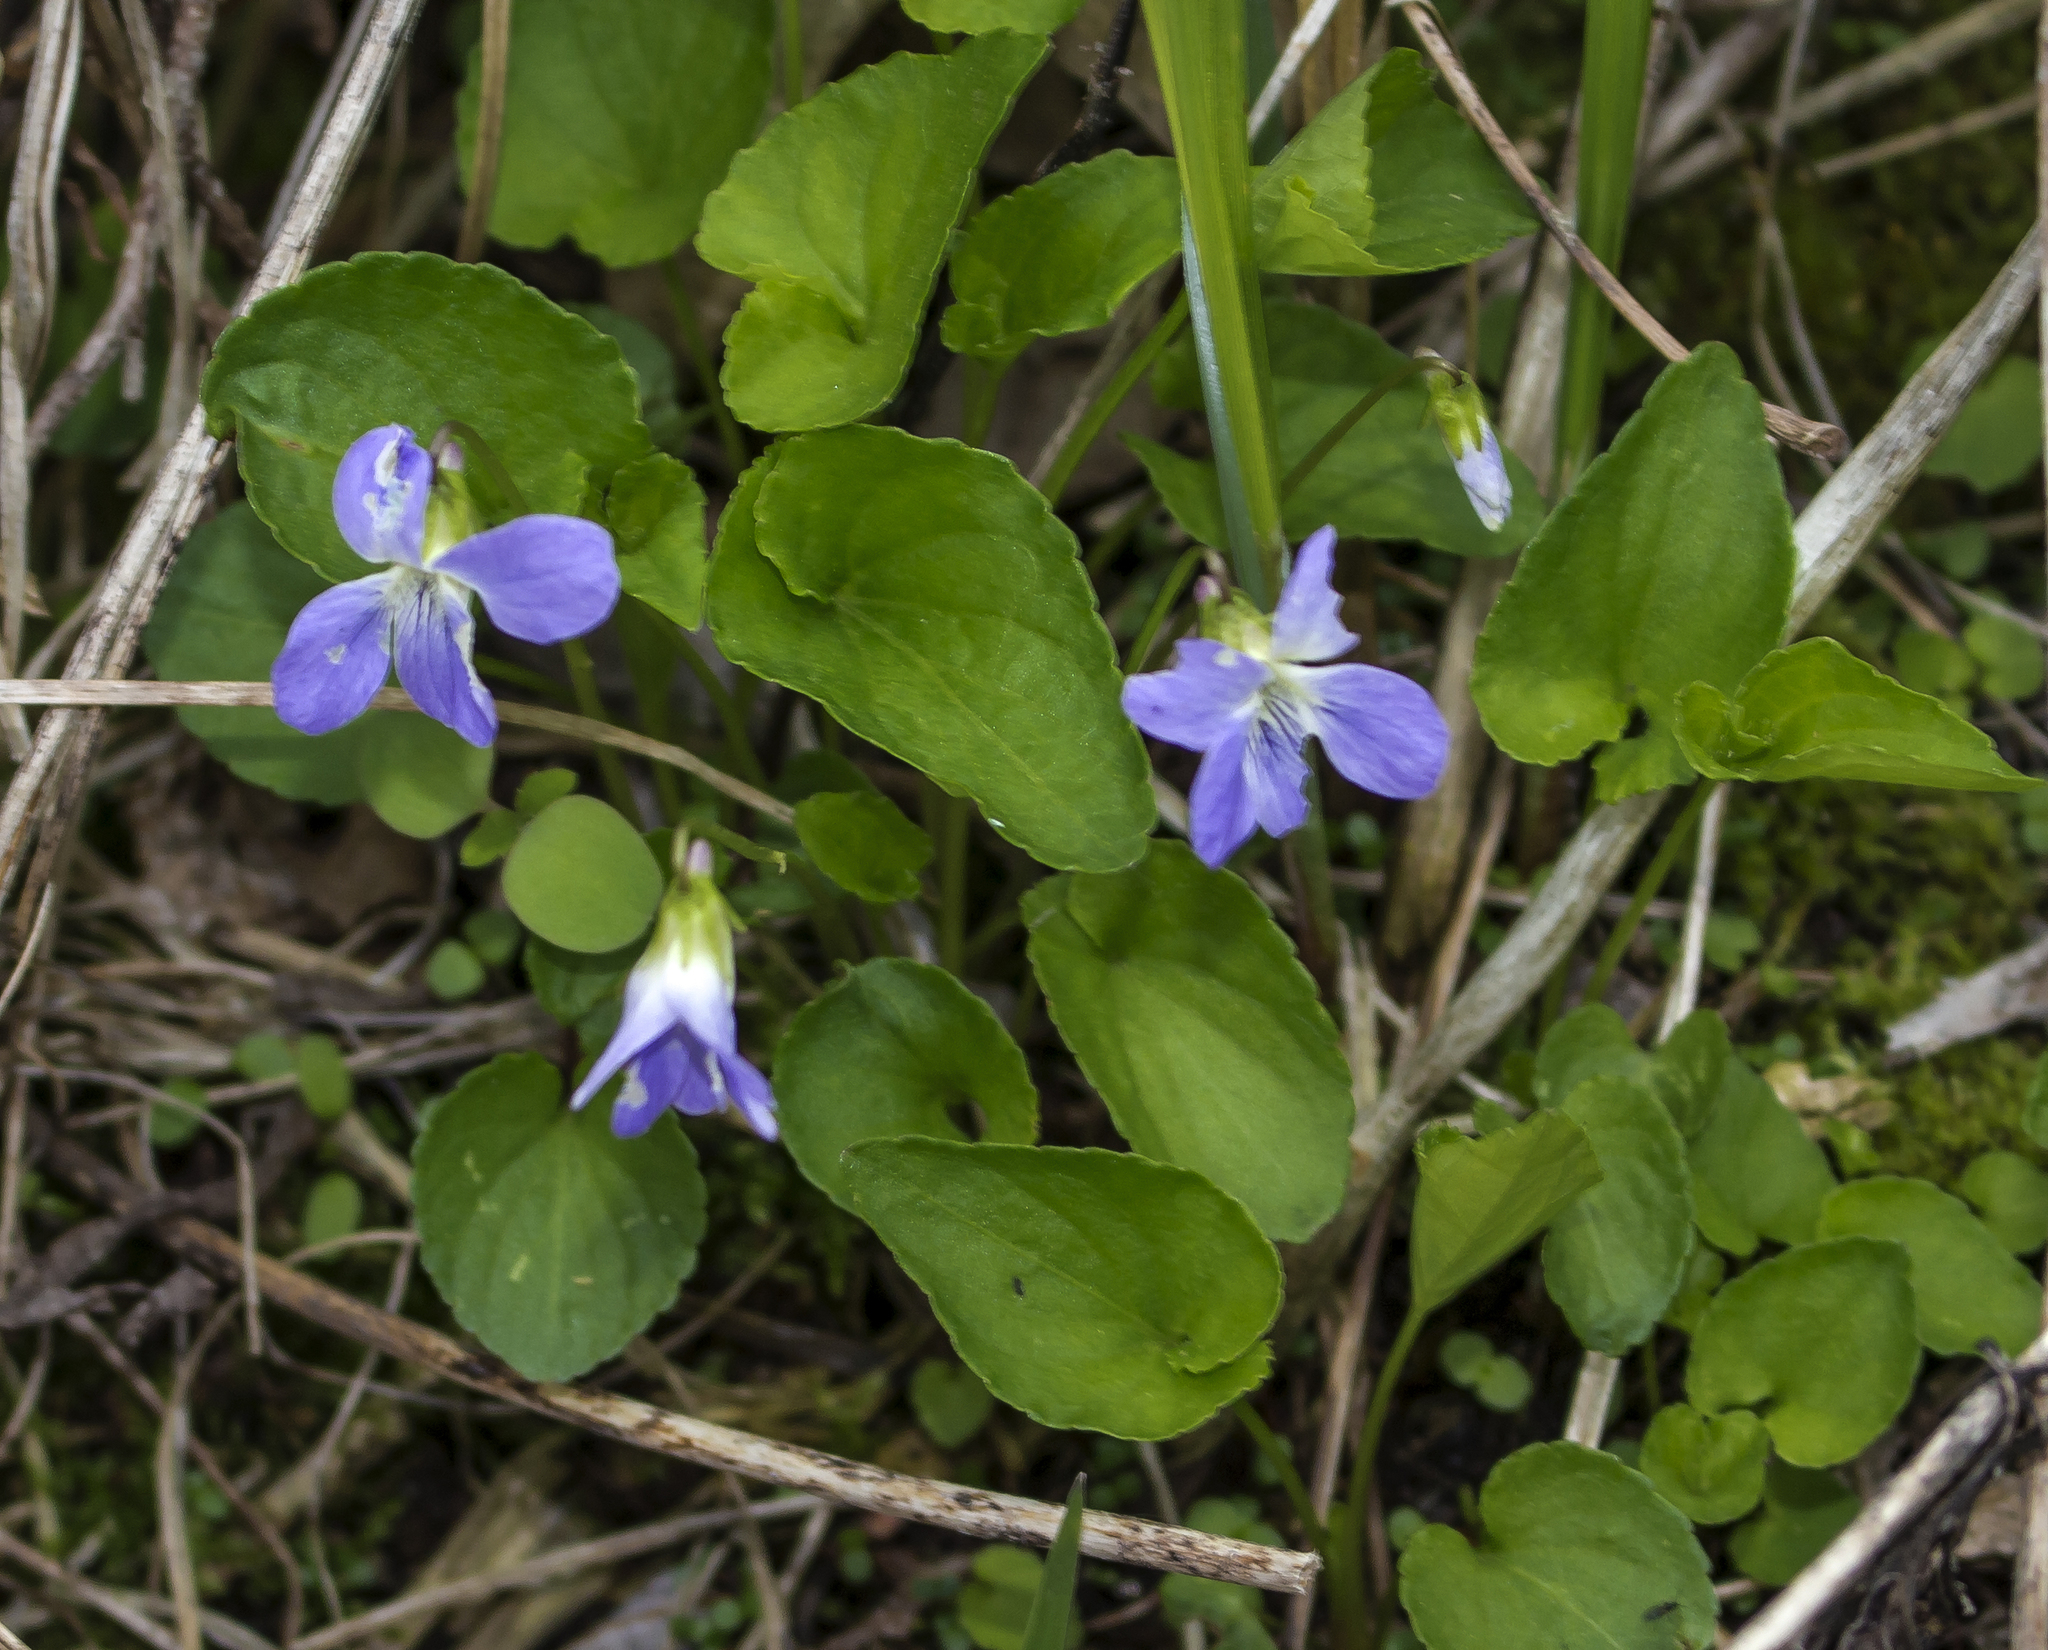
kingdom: Plantae
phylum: Tracheophyta
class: Magnoliopsida
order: Malpighiales
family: Violaceae
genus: Viola
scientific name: Viola cucullata
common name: Marsh blue violet
